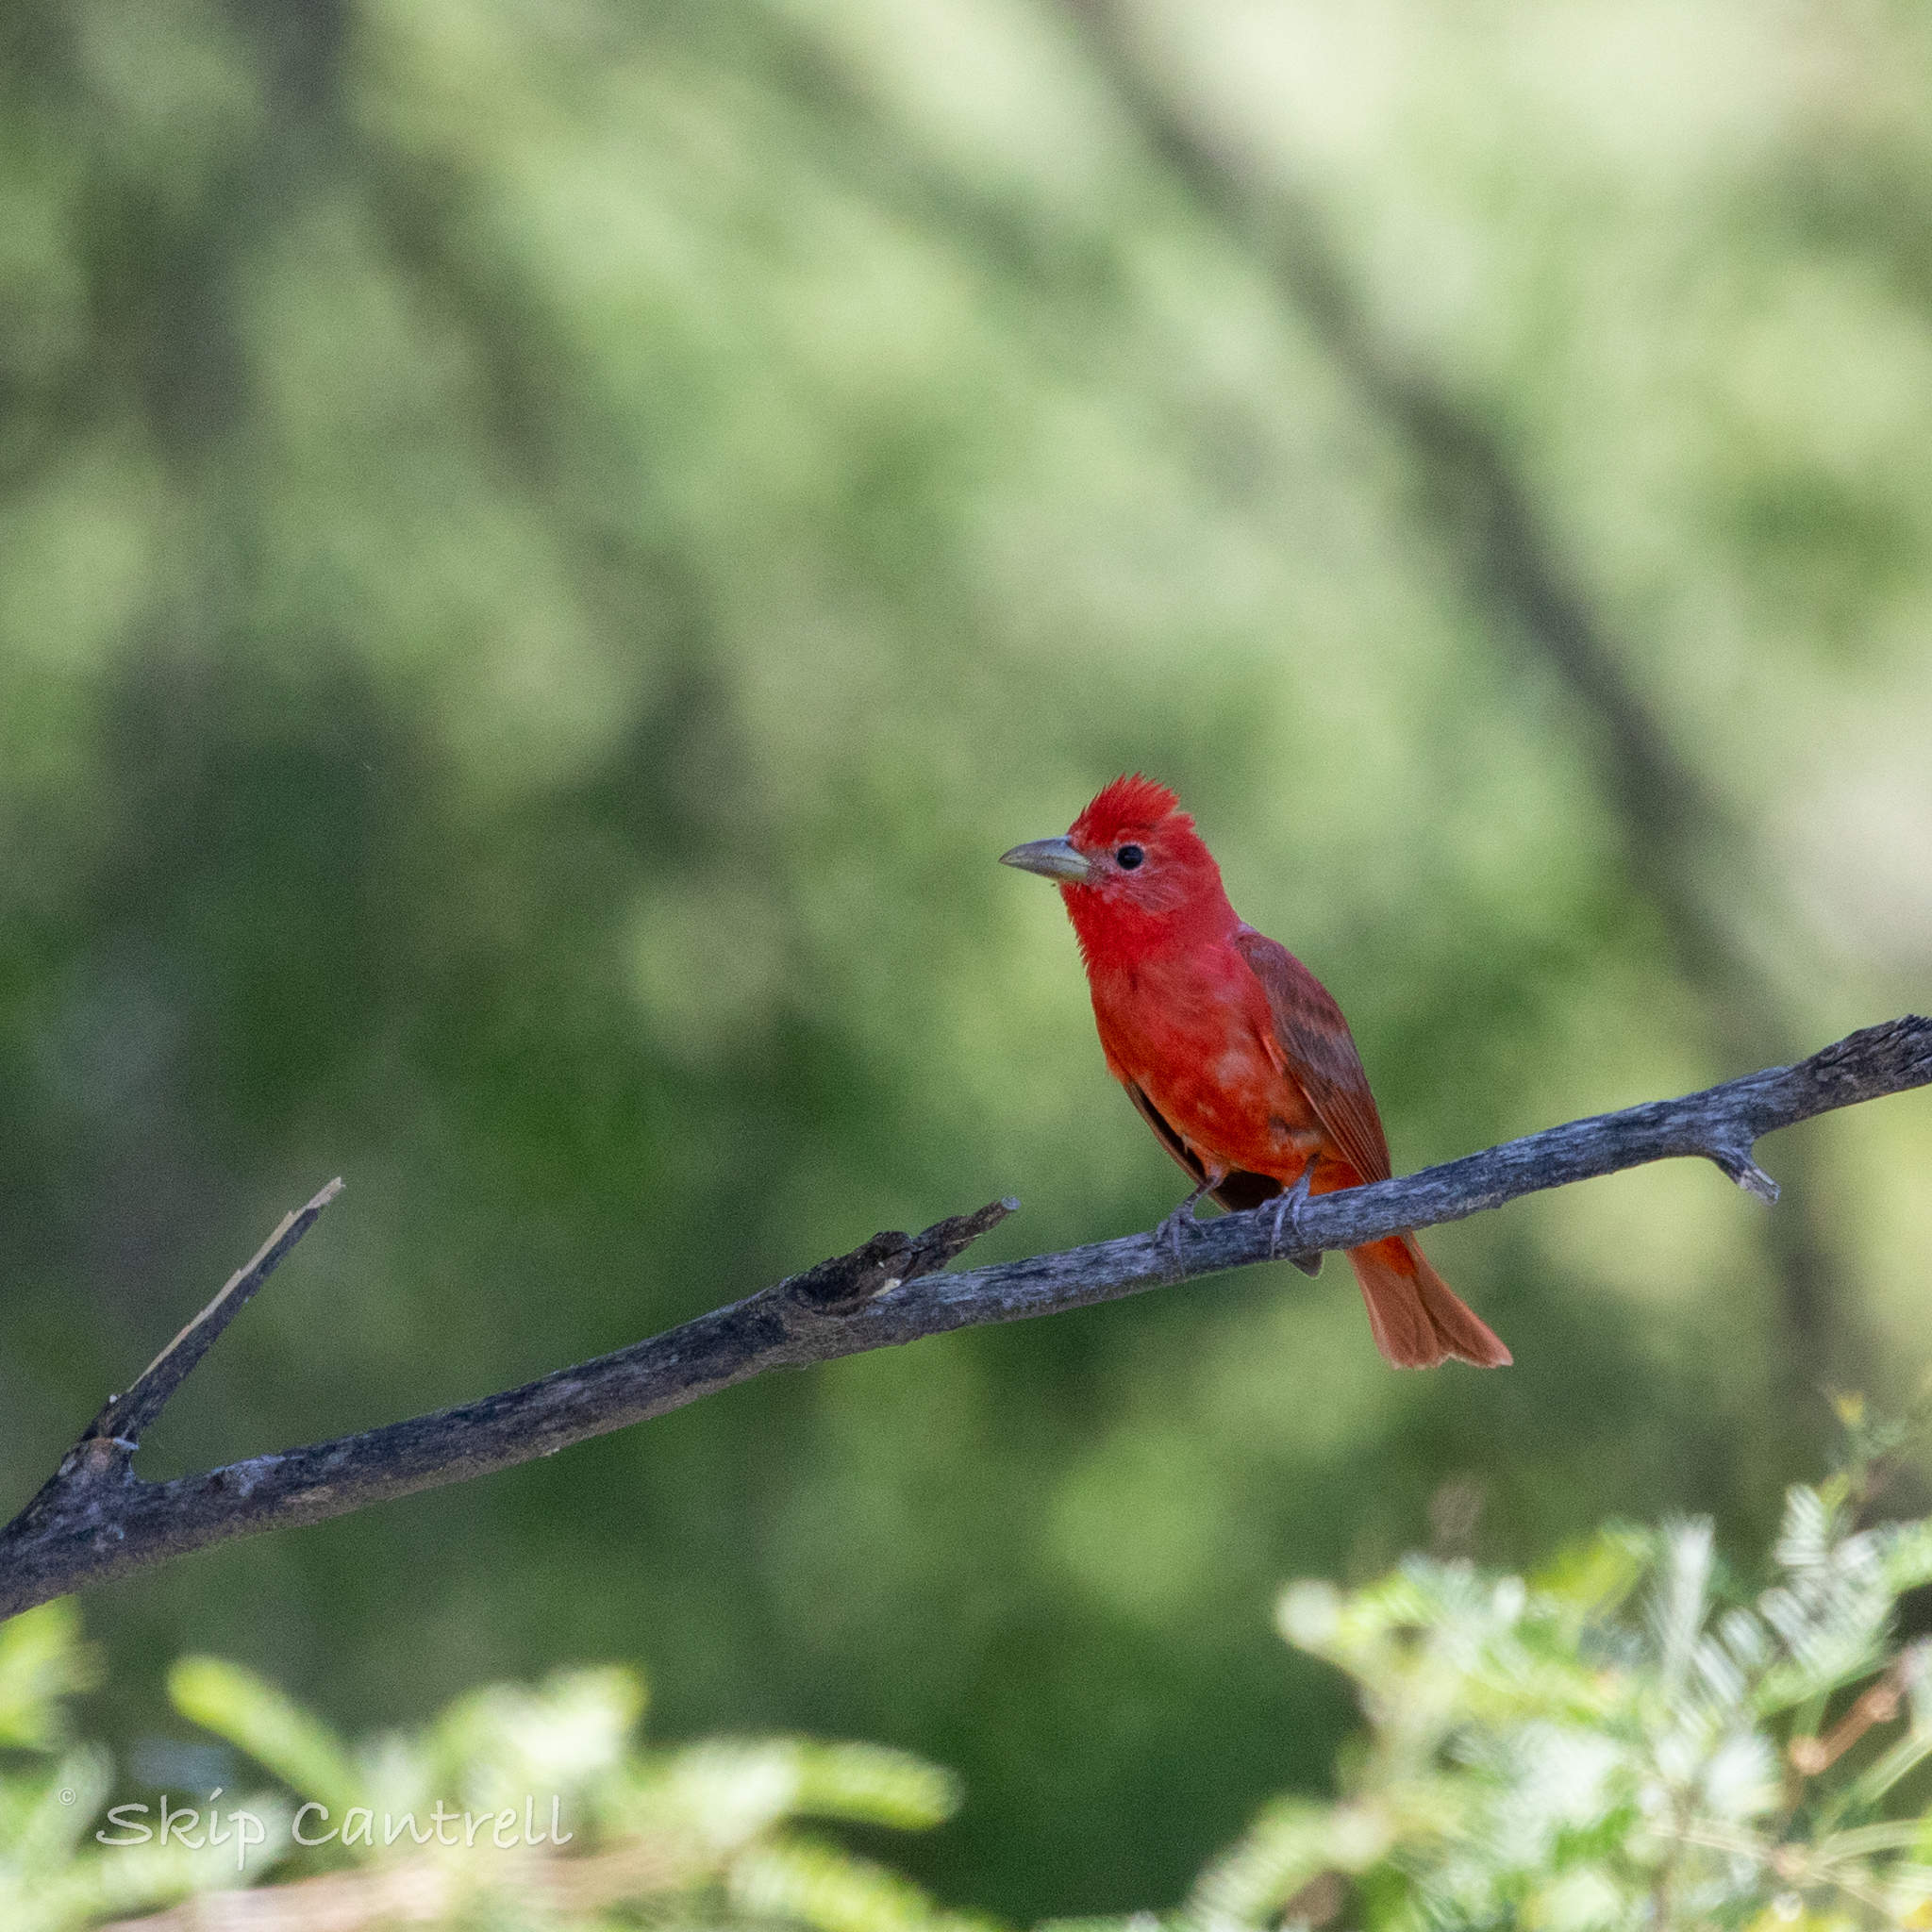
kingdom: Animalia
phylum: Chordata
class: Aves
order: Passeriformes
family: Cardinalidae
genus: Piranga
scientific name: Piranga rubra
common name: Summer tanager
